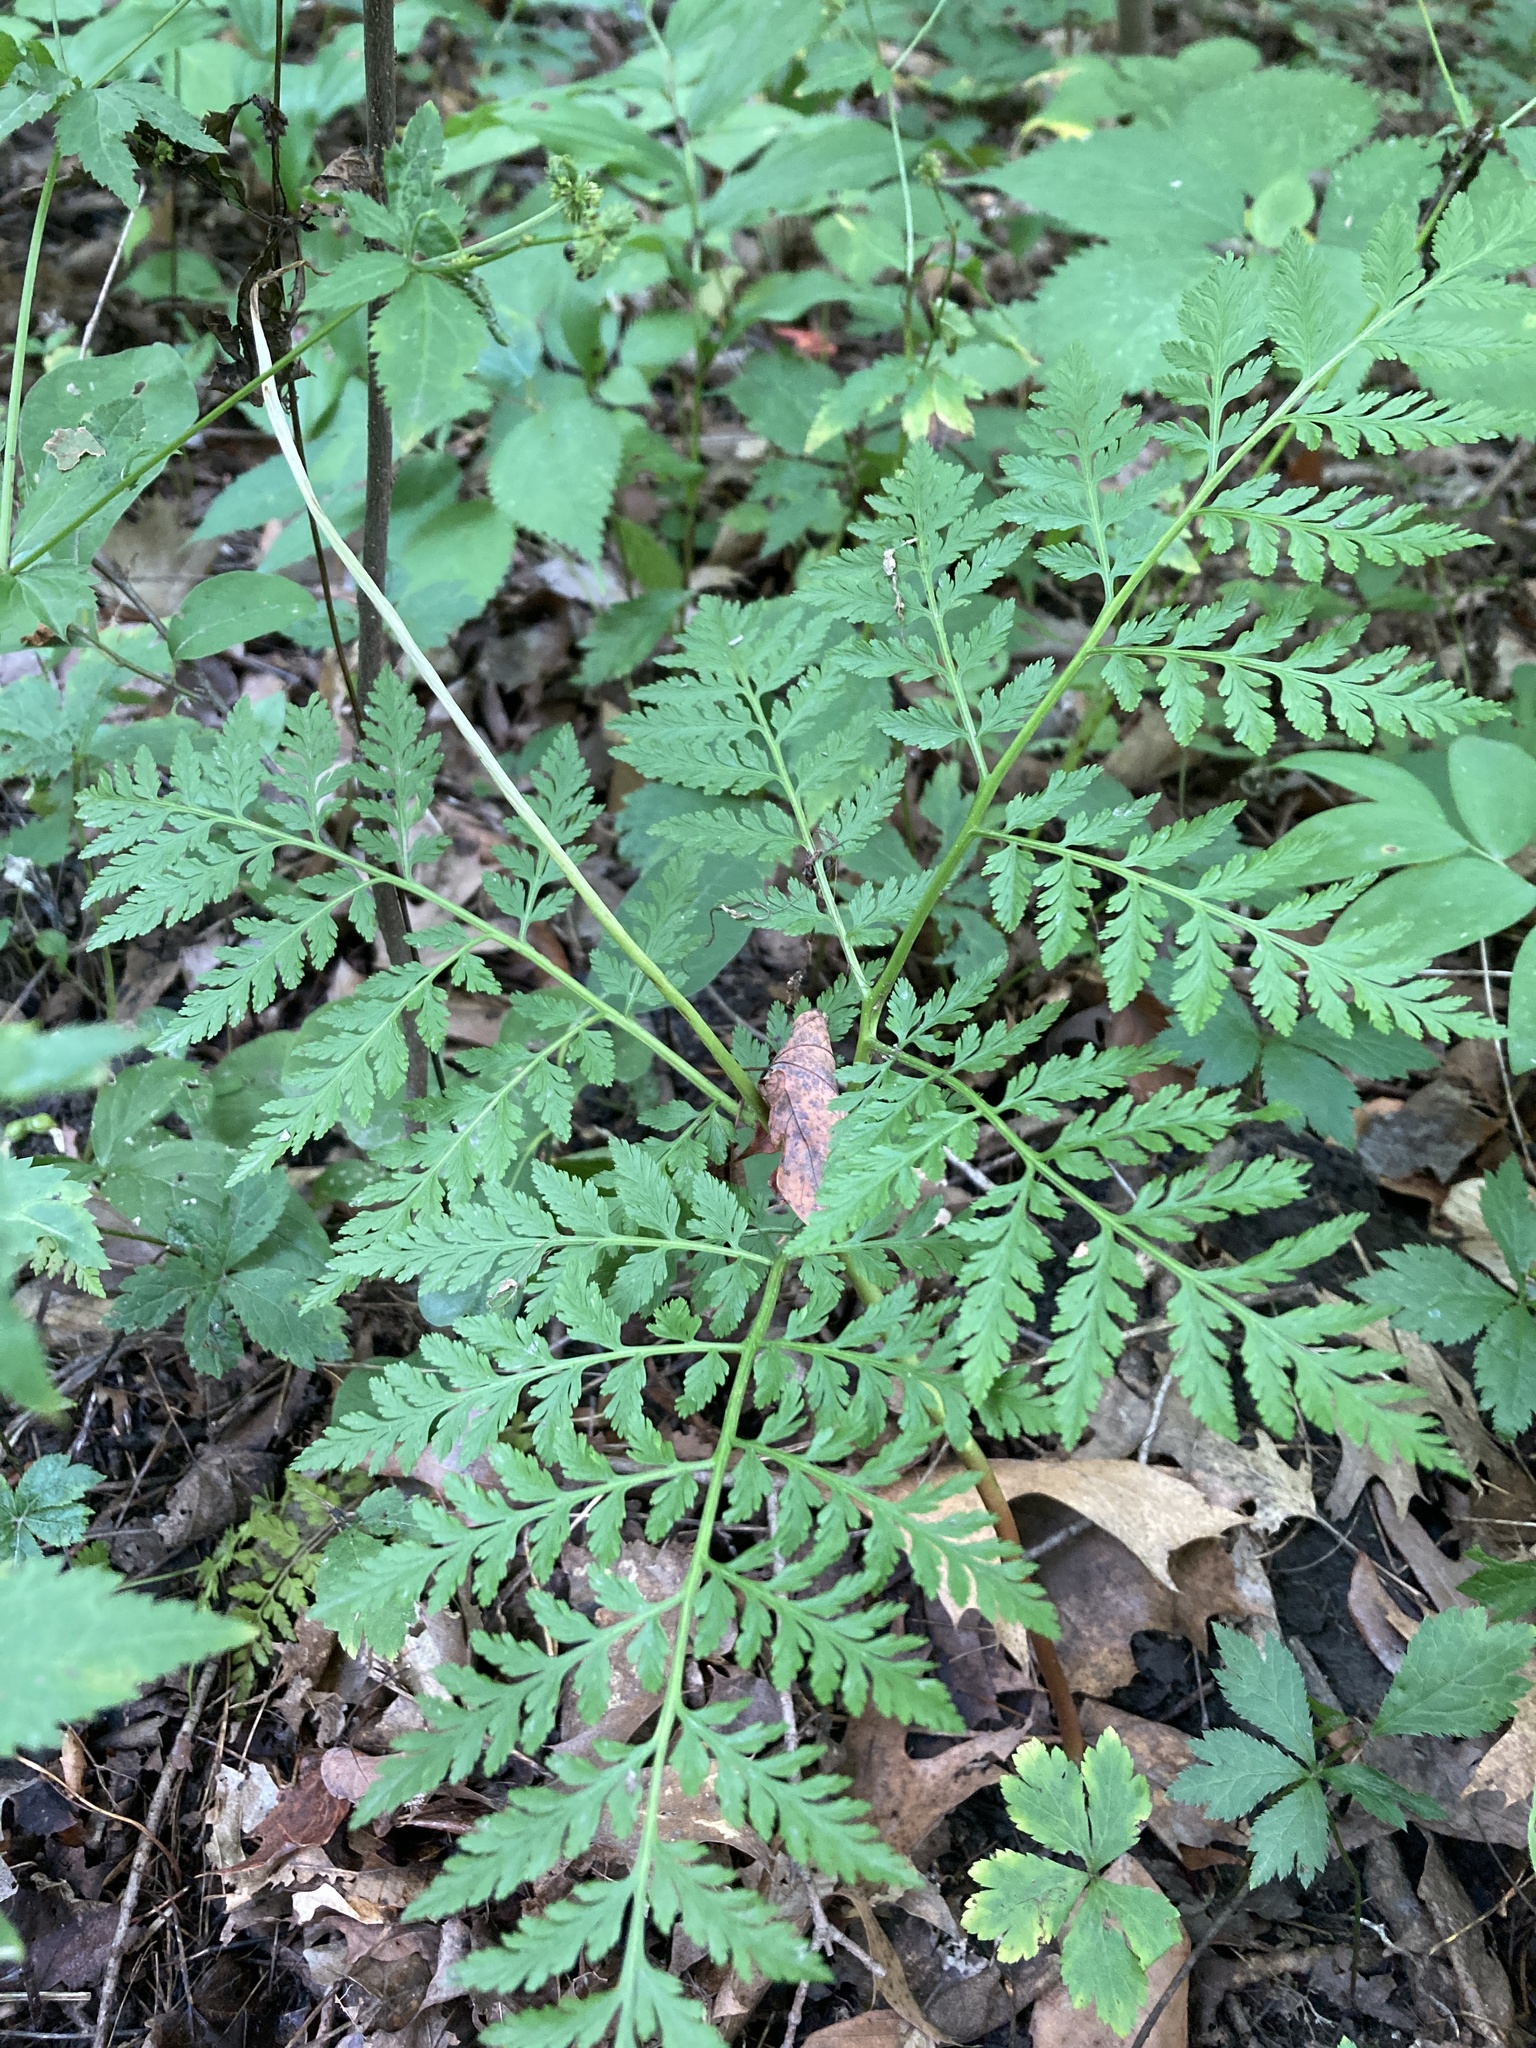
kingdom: Plantae
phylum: Tracheophyta
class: Polypodiopsida
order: Ophioglossales
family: Ophioglossaceae
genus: Botrypus
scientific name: Botrypus virginianus
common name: Common grapefern
